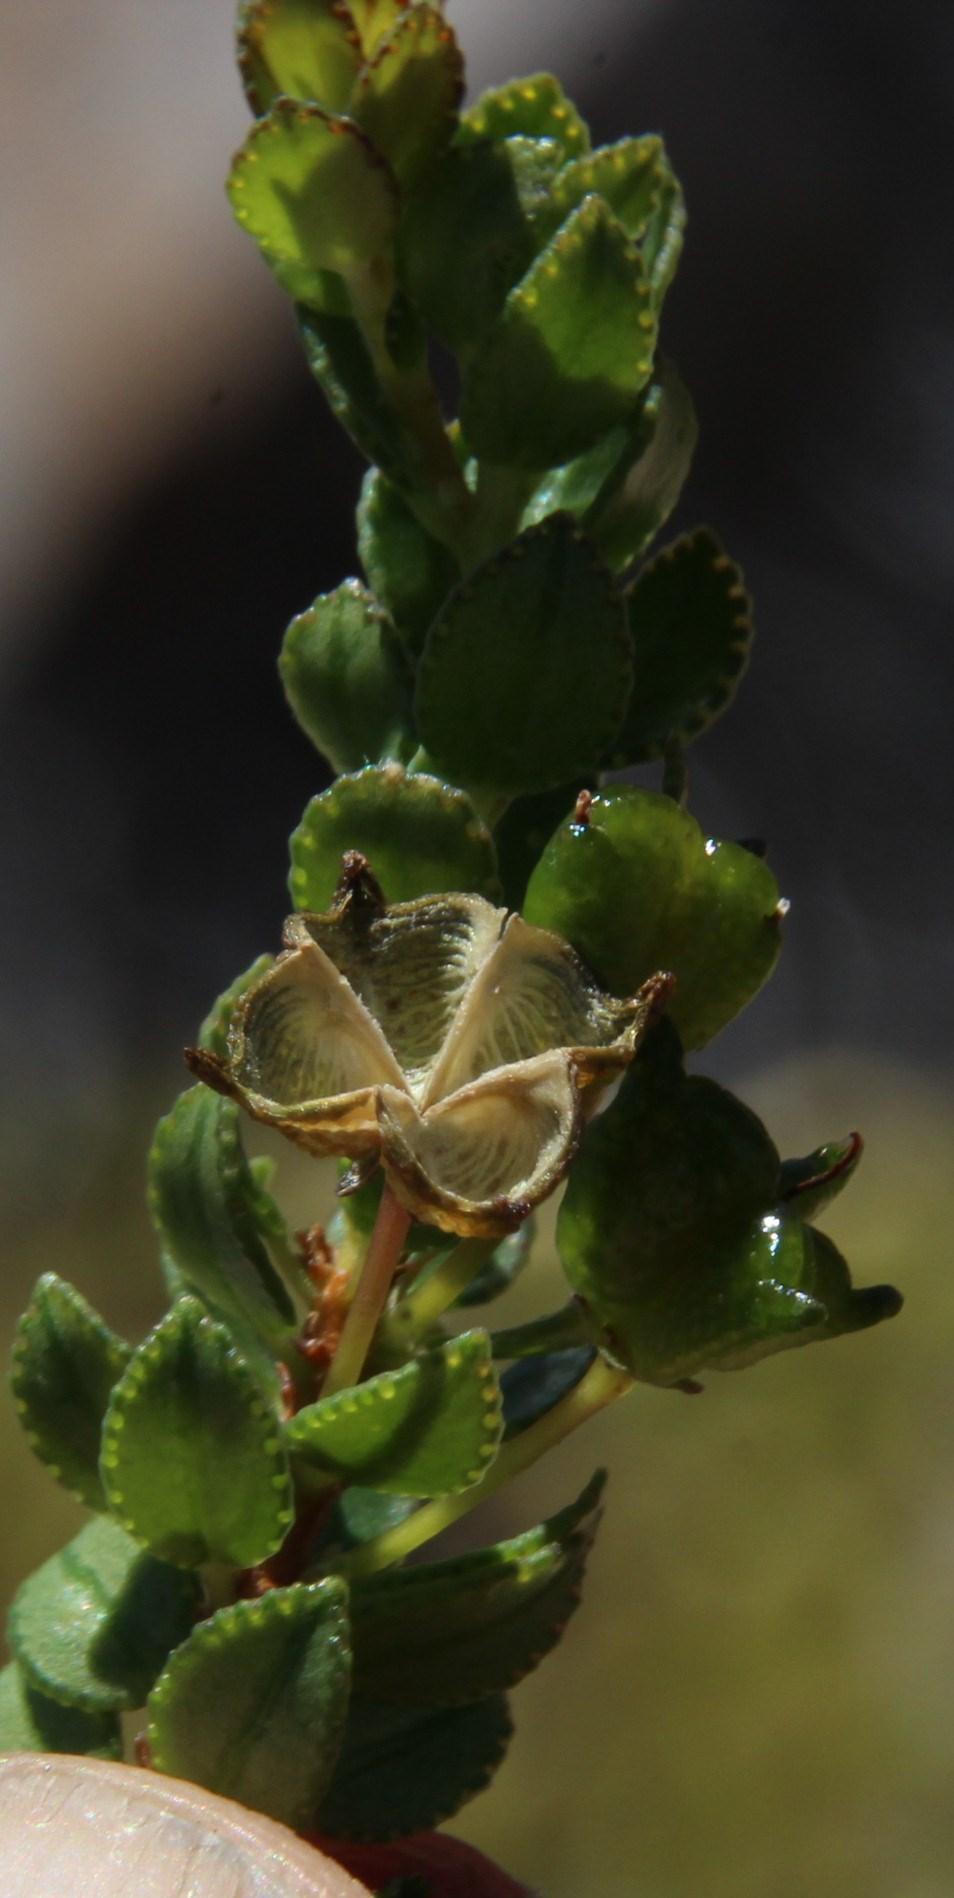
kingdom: Plantae
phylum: Tracheophyta
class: Magnoliopsida
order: Sapindales
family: Rutaceae
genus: Agathosma
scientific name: Agathosma odoratissima
